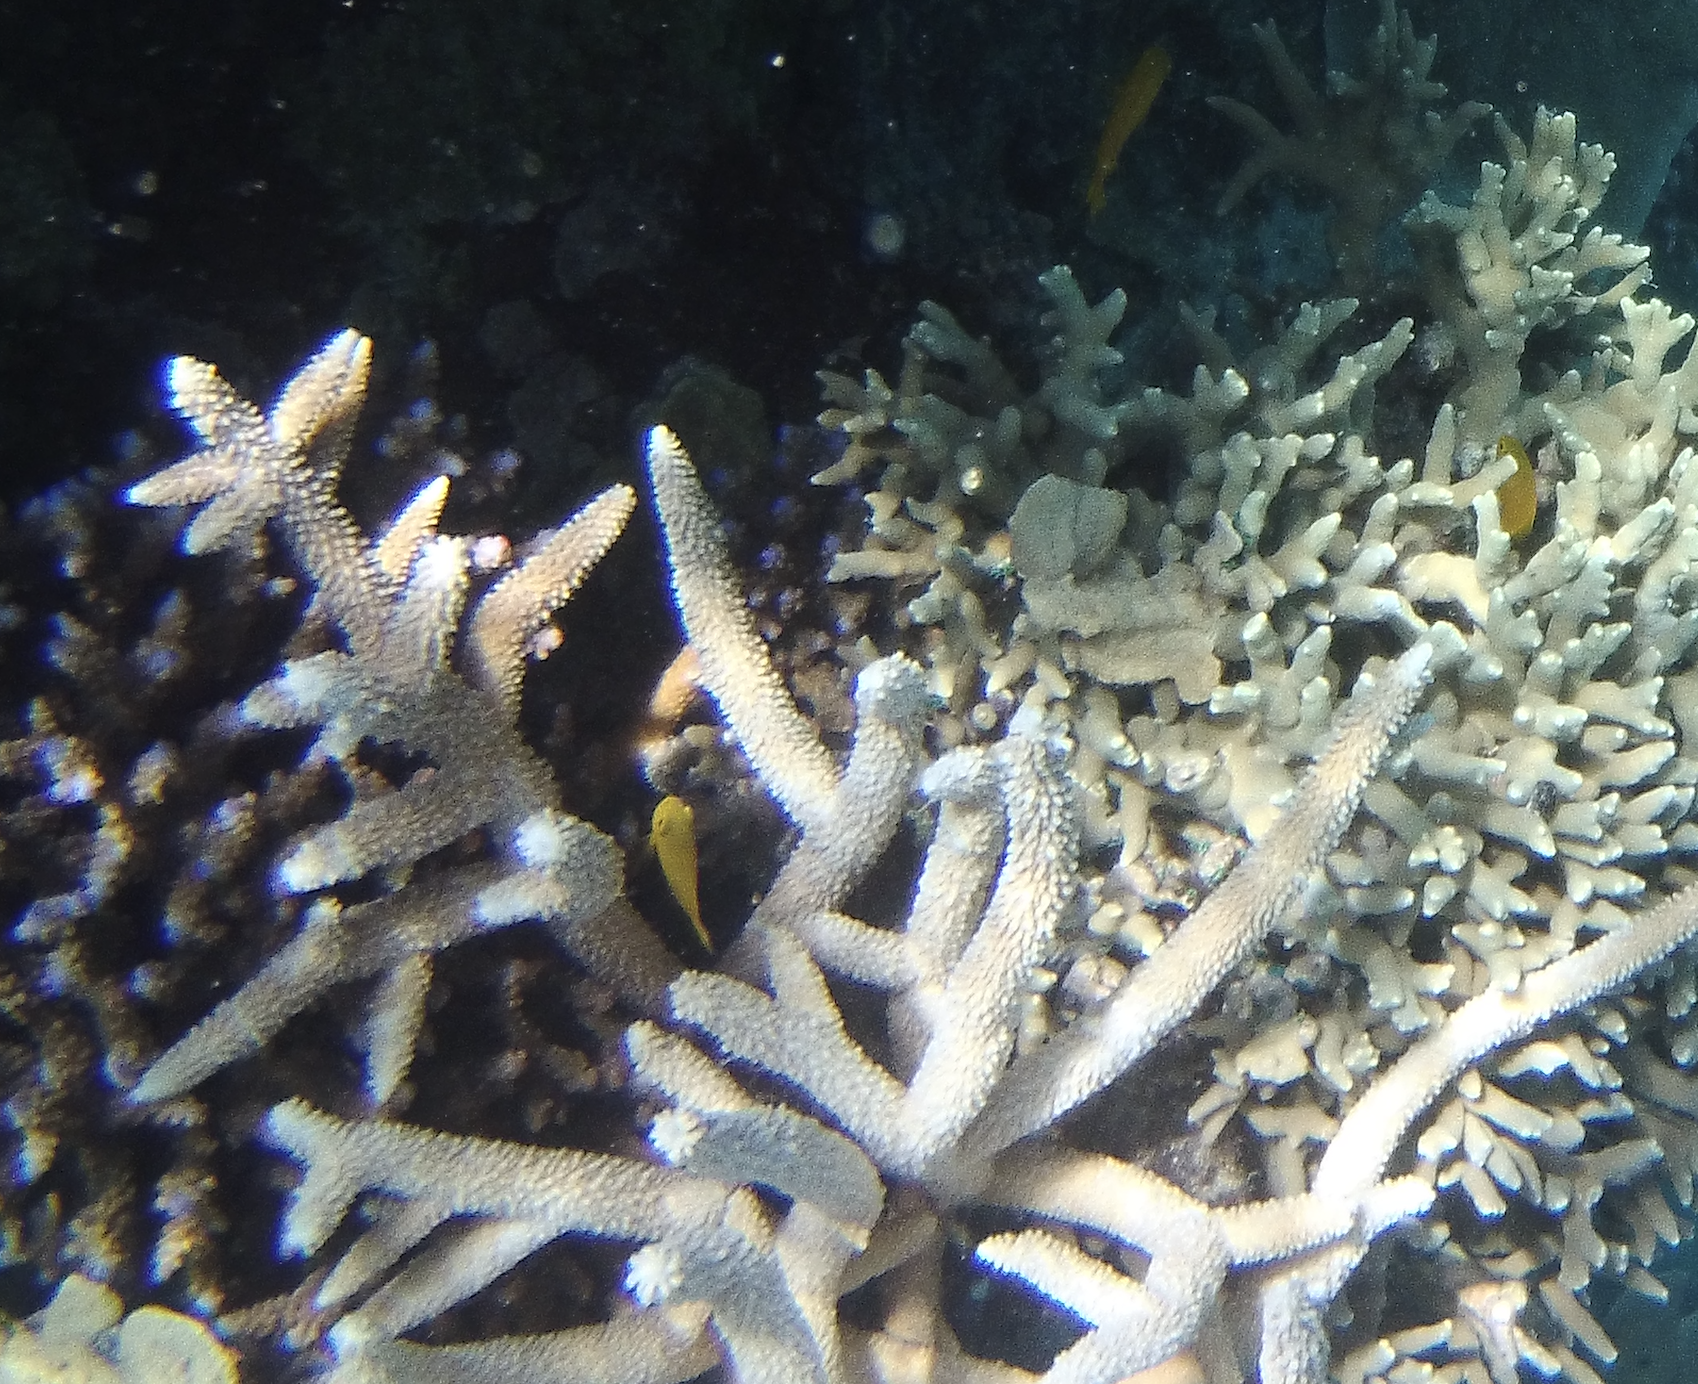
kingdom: Animalia
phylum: Chordata
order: Perciformes
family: Pomacentridae
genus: Pomacentrus
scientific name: Pomacentrus moluccensis
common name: Lemon damsel
